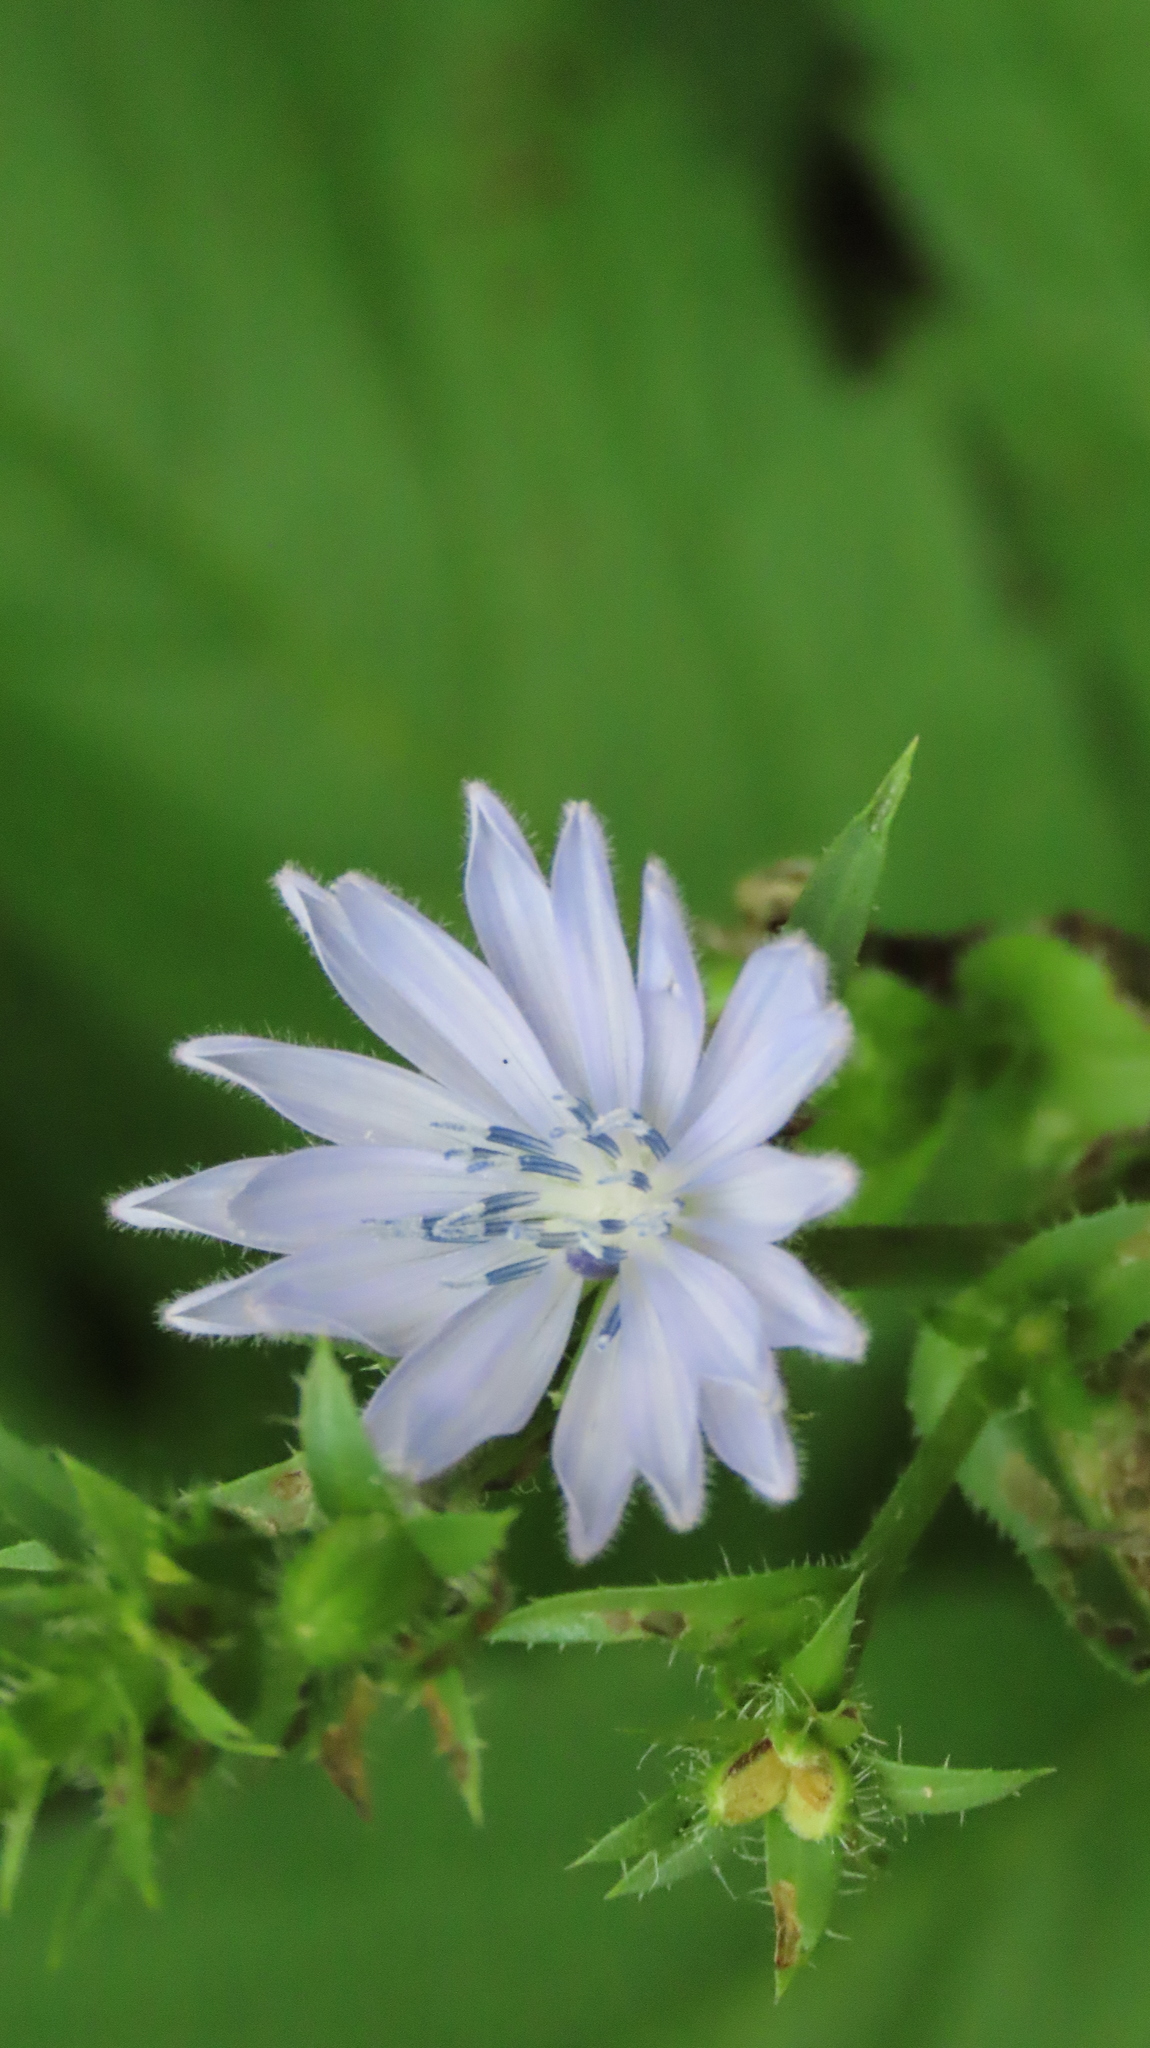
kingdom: Plantae
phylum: Tracheophyta
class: Magnoliopsida
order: Asterales
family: Asteraceae
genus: Cichorium
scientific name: Cichorium intybus
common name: Chicory
